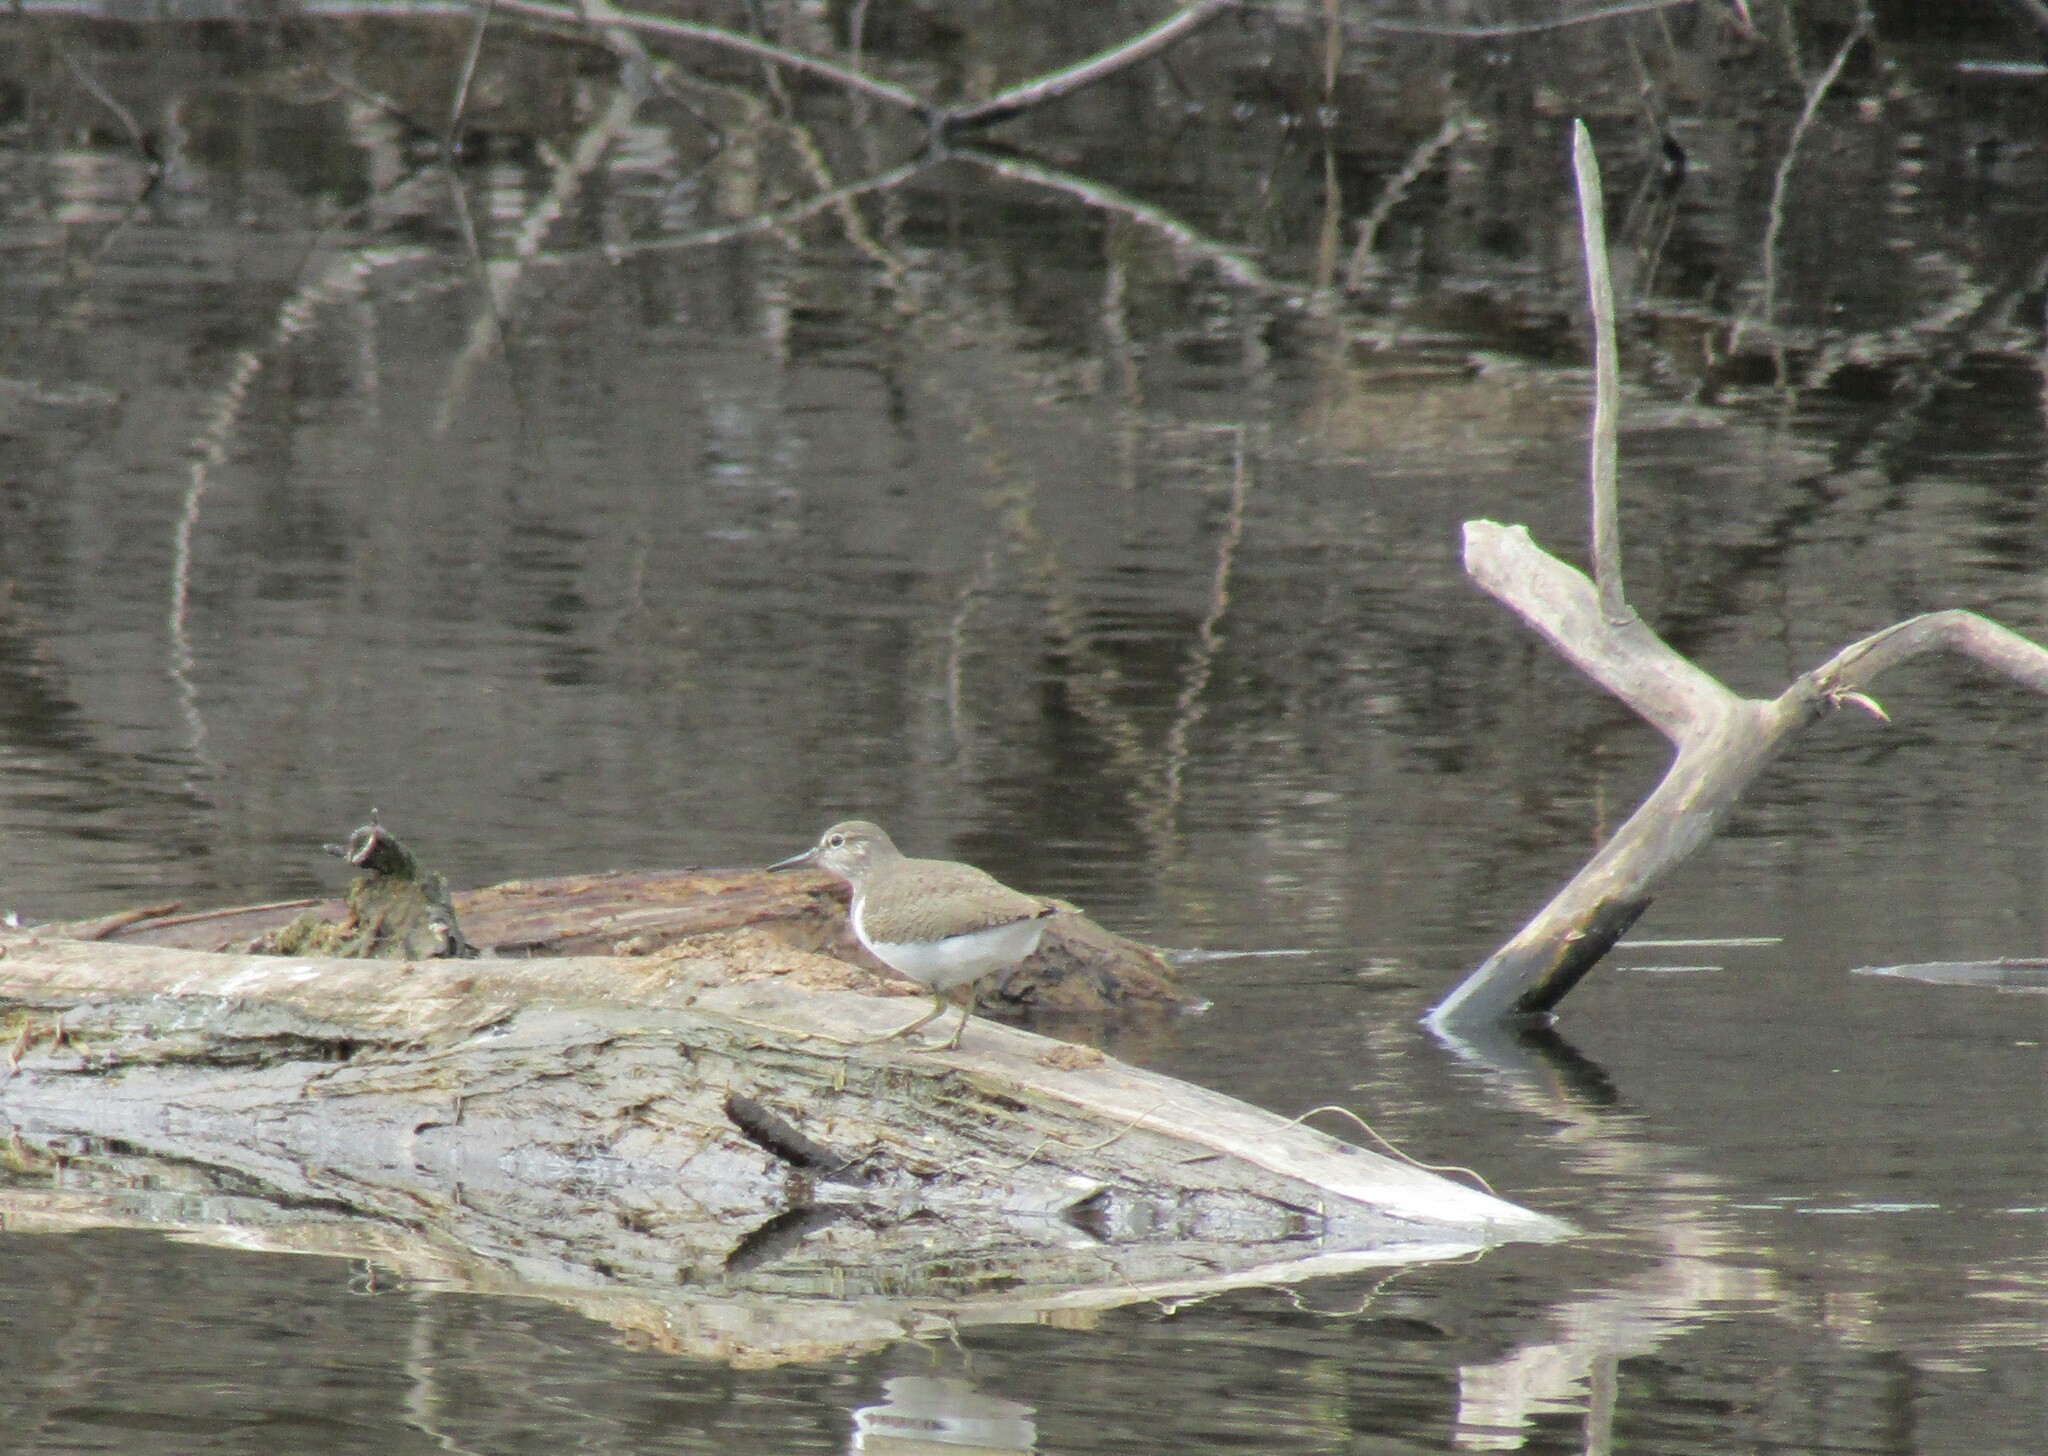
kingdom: Animalia
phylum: Chordata
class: Aves
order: Charadriiformes
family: Scolopacidae
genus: Actitis
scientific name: Actitis hypoleucos
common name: Common sandpiper
